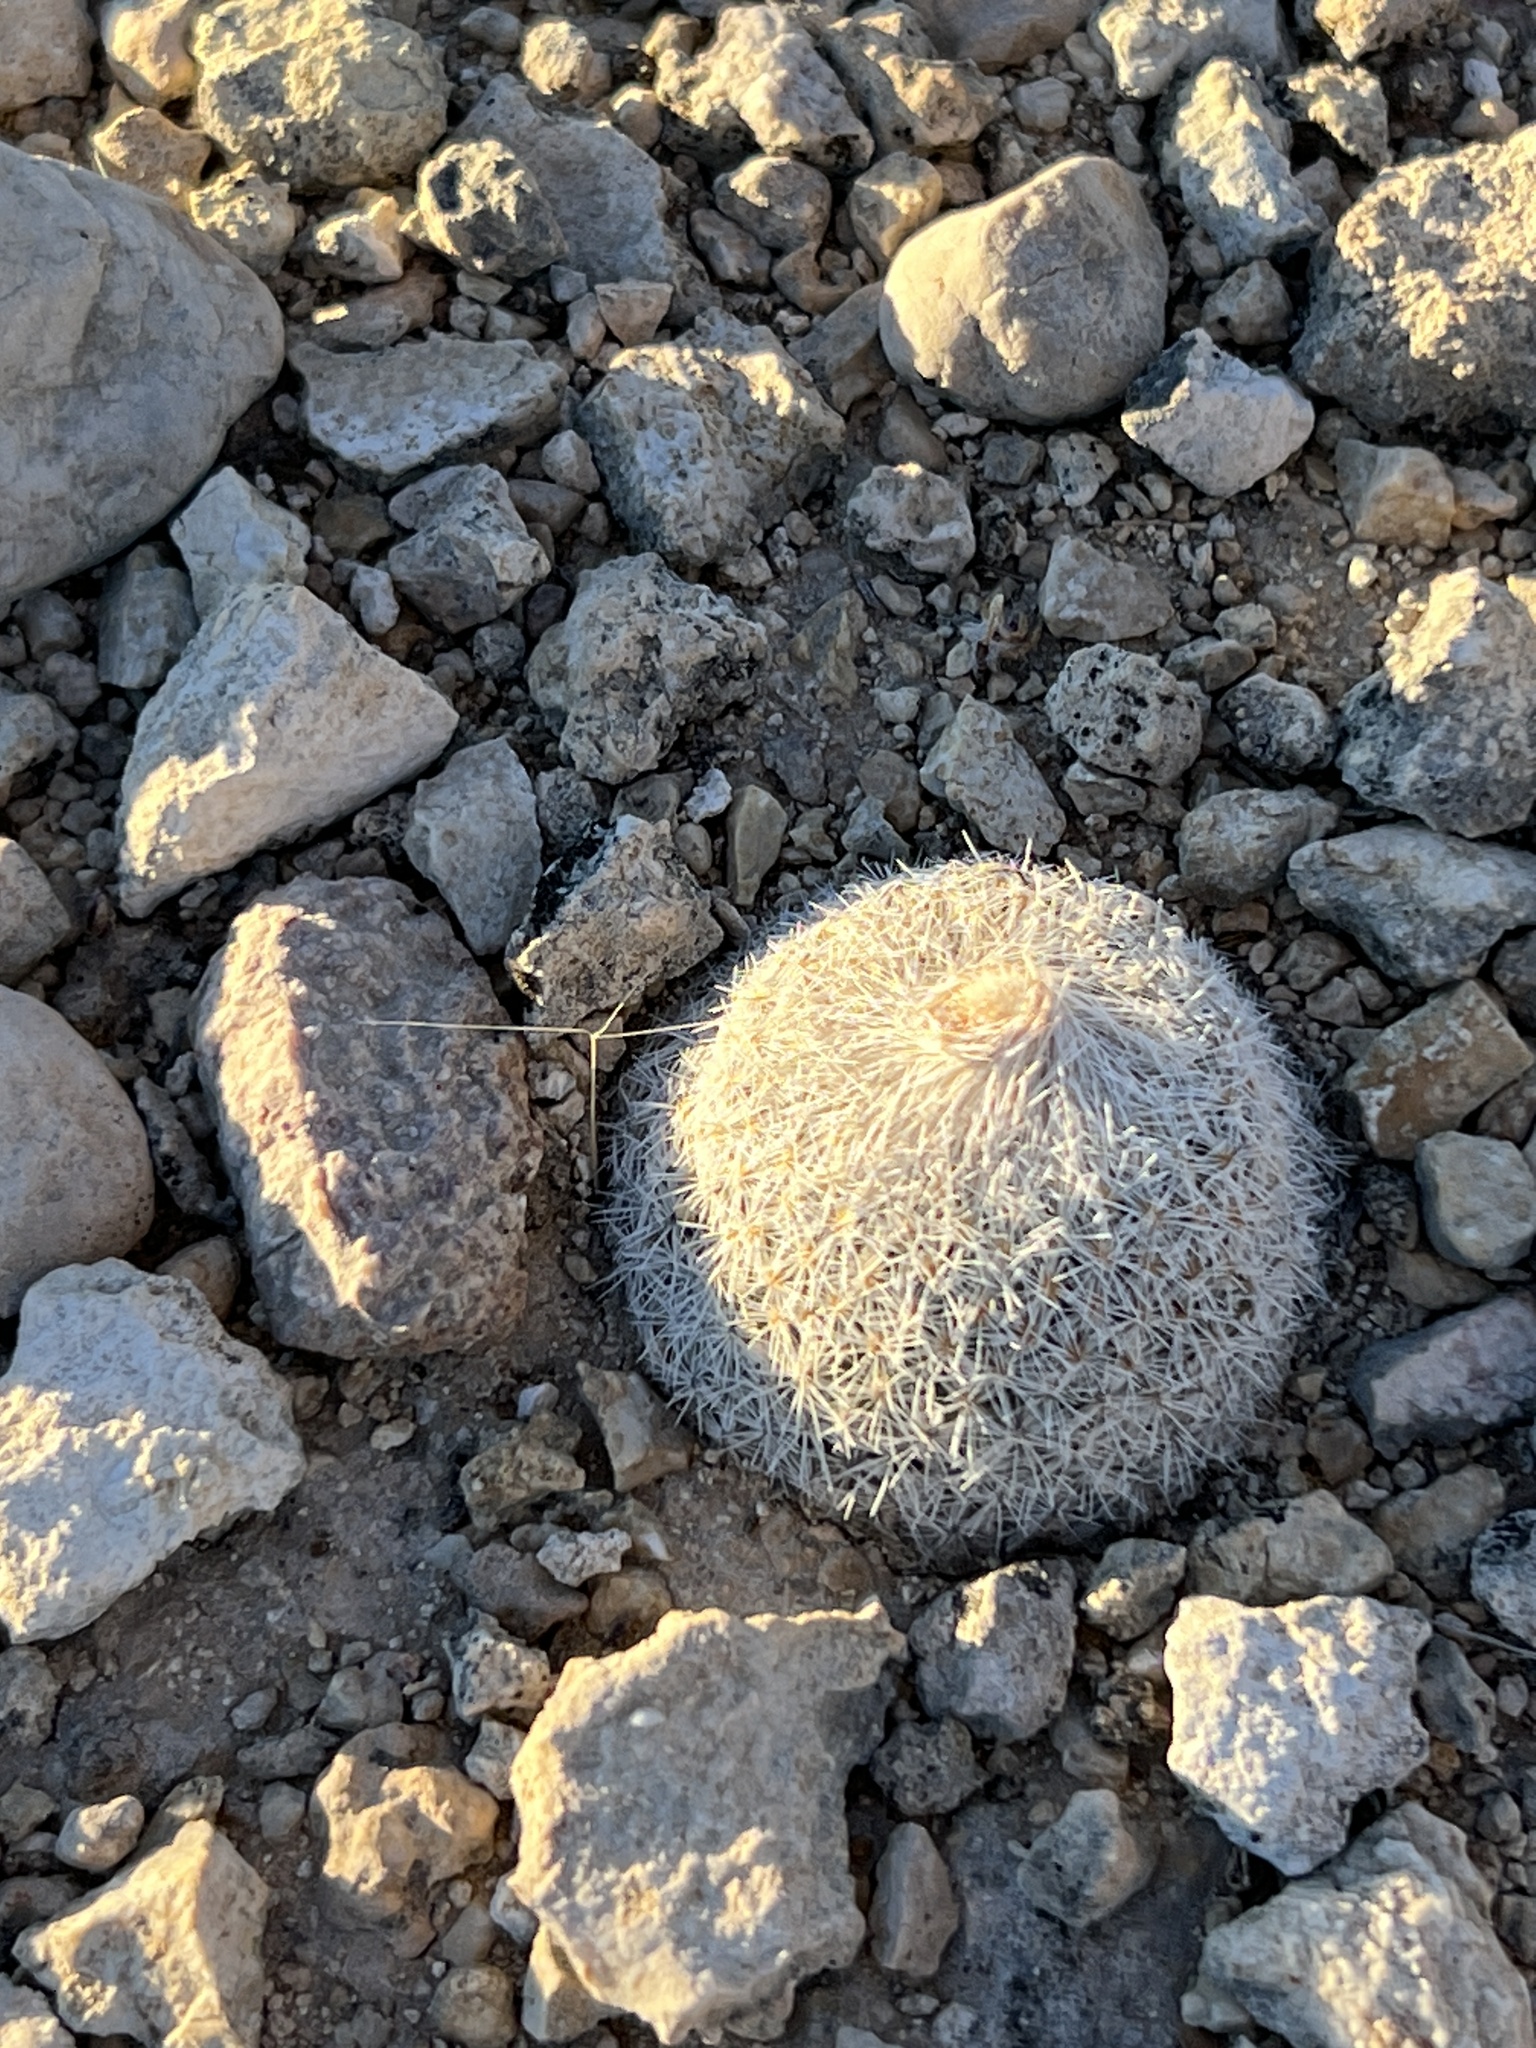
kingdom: Plantae
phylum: Tracheophyta
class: Magnoliopsida
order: Caryophyllales
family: Cactaceae
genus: Epithelantha
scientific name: Epithelantha micromeris
